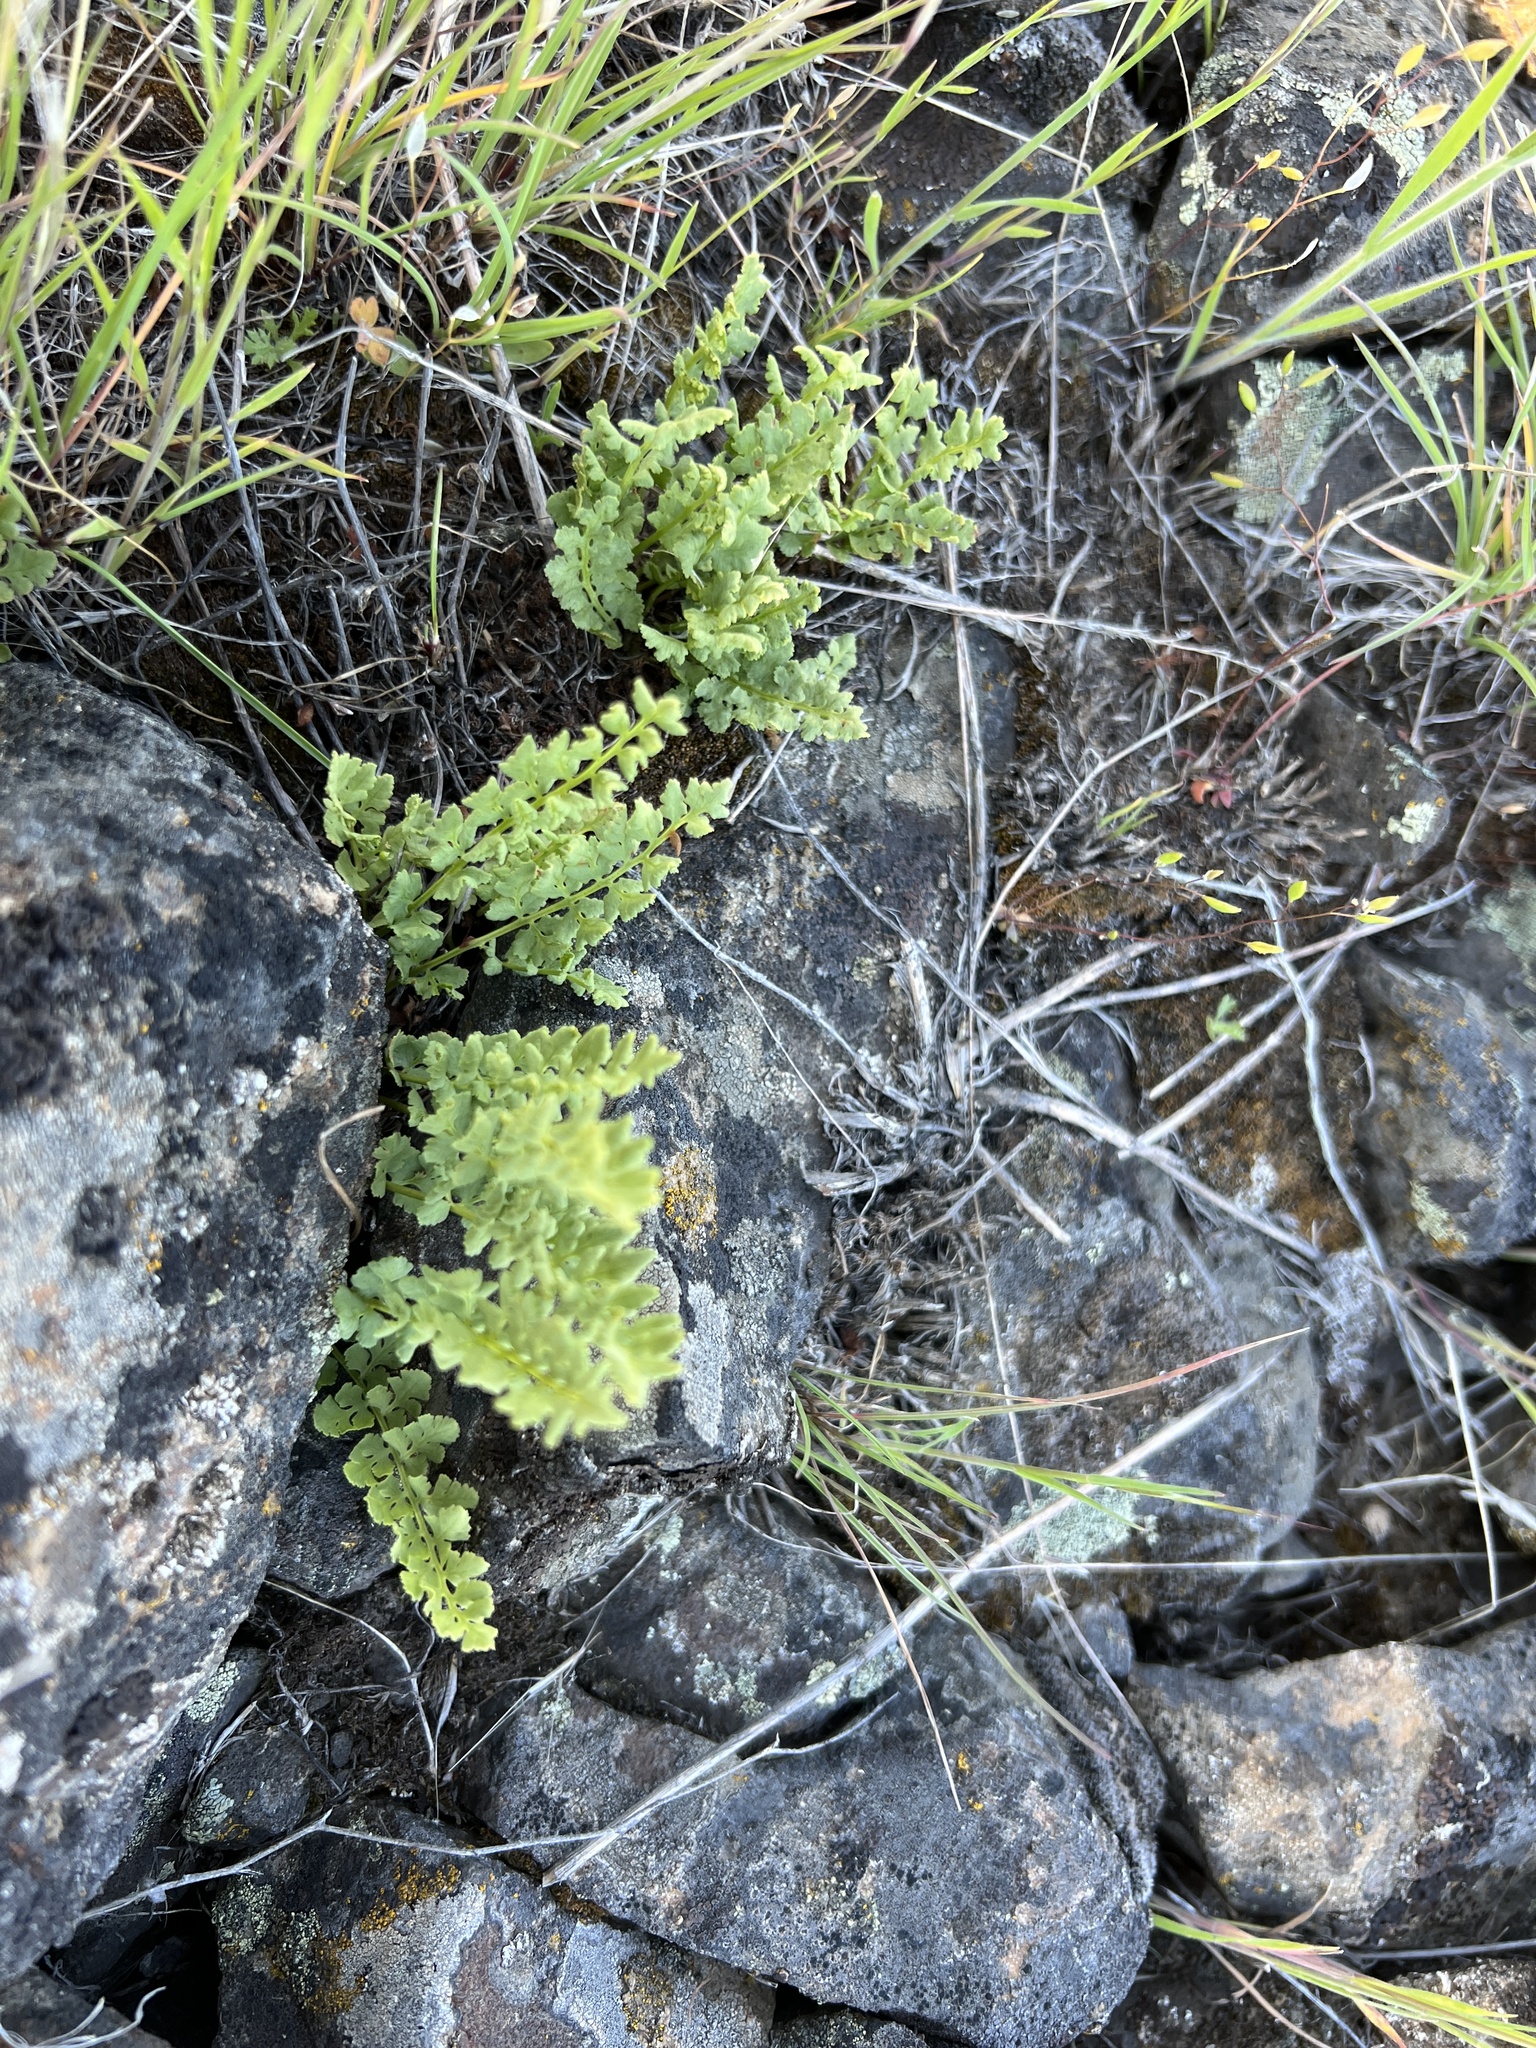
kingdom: Plantae
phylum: Tracheophyta
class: Polypodiopsida
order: Polypodiales
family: Woodsiaceae
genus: Physematium
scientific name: Physematium oreganum
